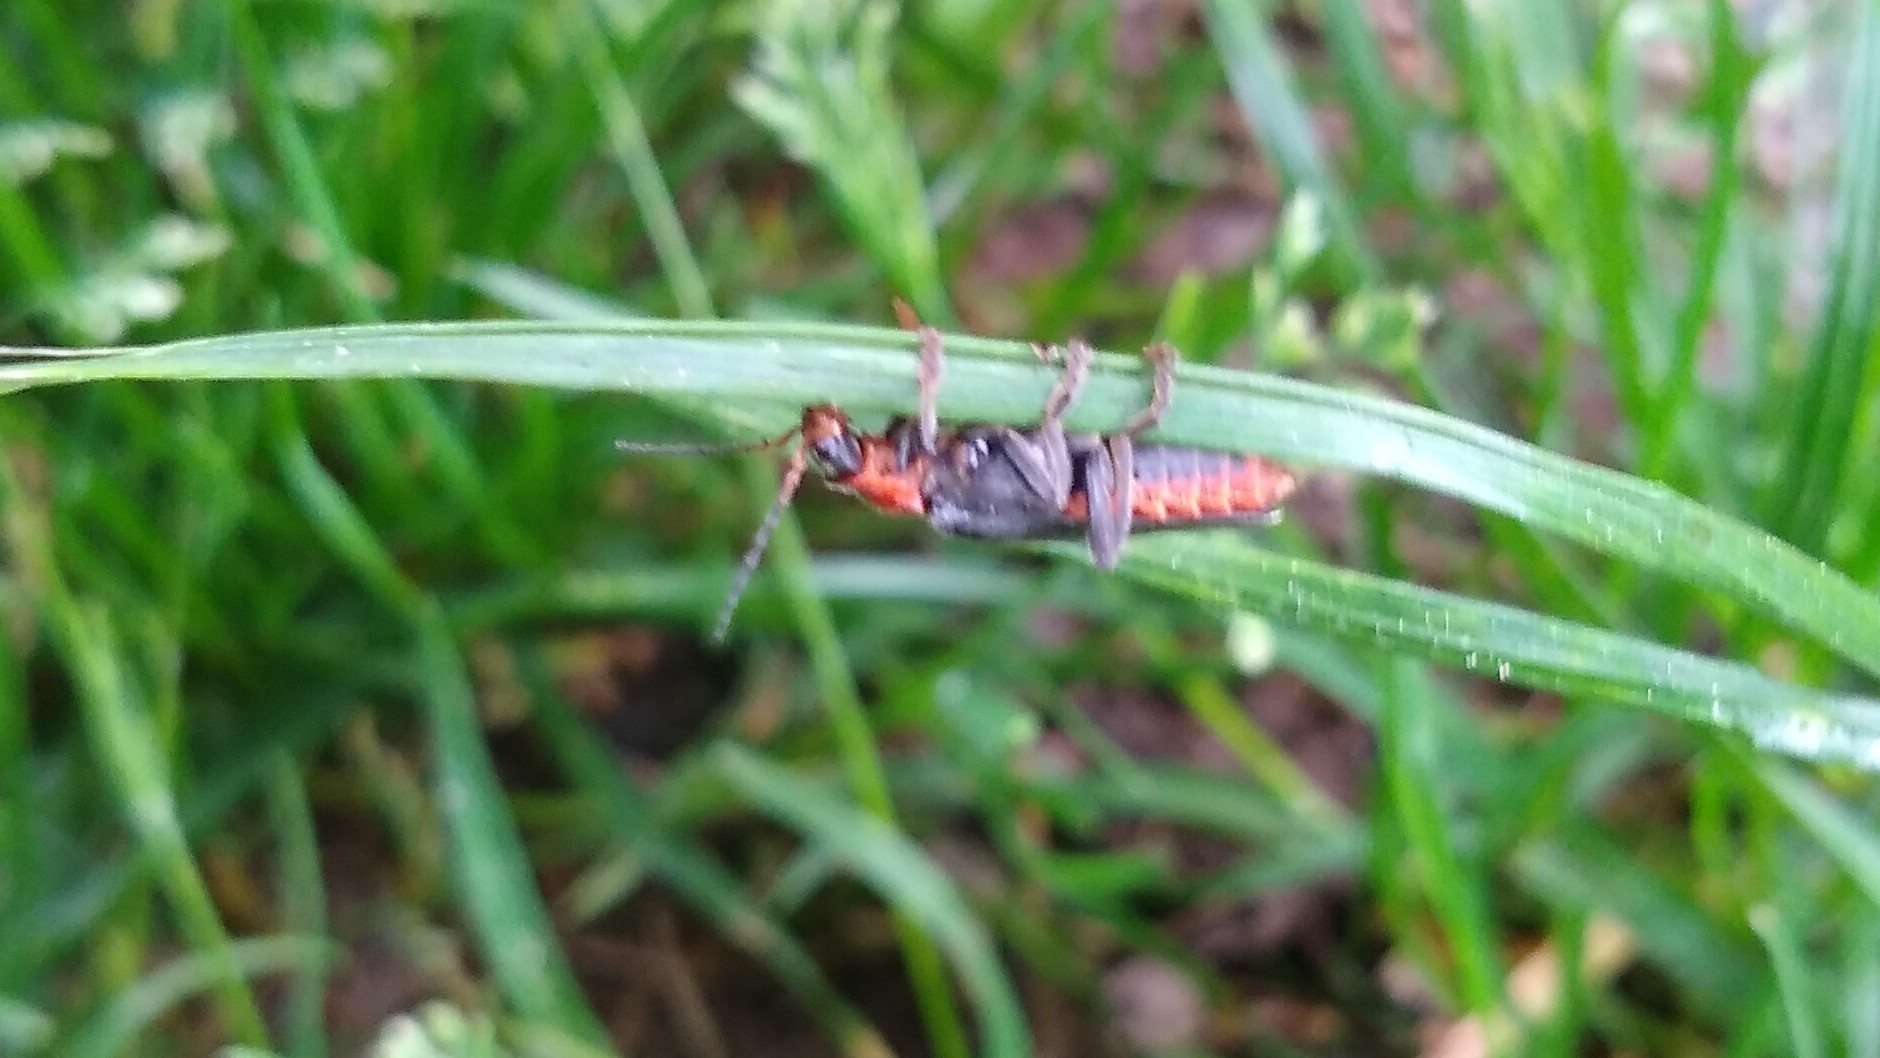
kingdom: Animalia
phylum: Arthropoda
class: Insecta
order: Coleoptera
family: Cantharidae
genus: Cantharis
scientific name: Cantharis fusca
